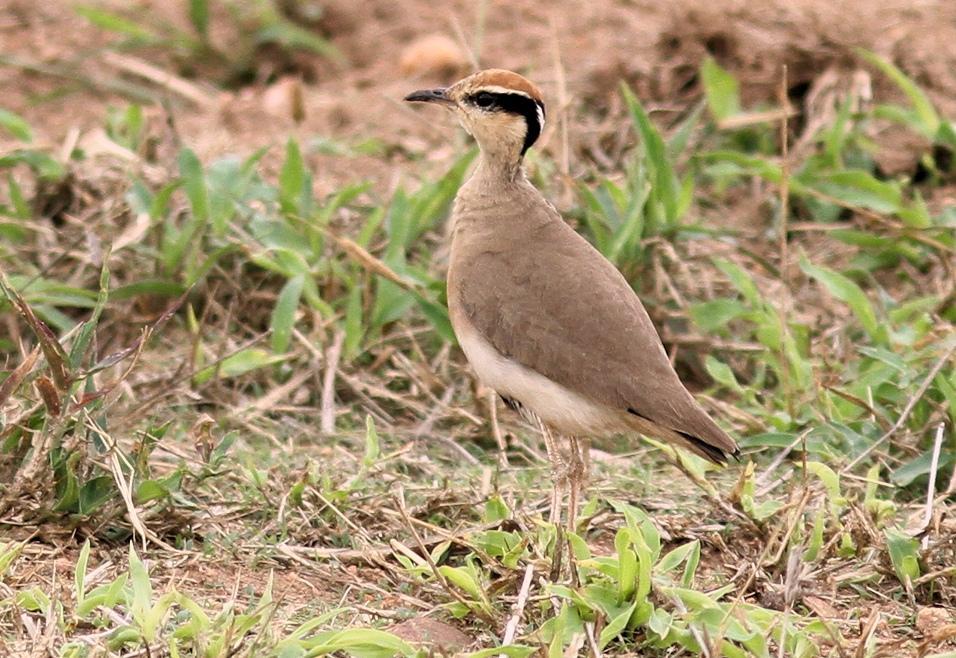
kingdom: Animalia
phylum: Chordata
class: Aves
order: Charadriiformes
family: Glareolidae
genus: Cursorius
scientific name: Cursorius temminckii
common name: Temminck's courser
